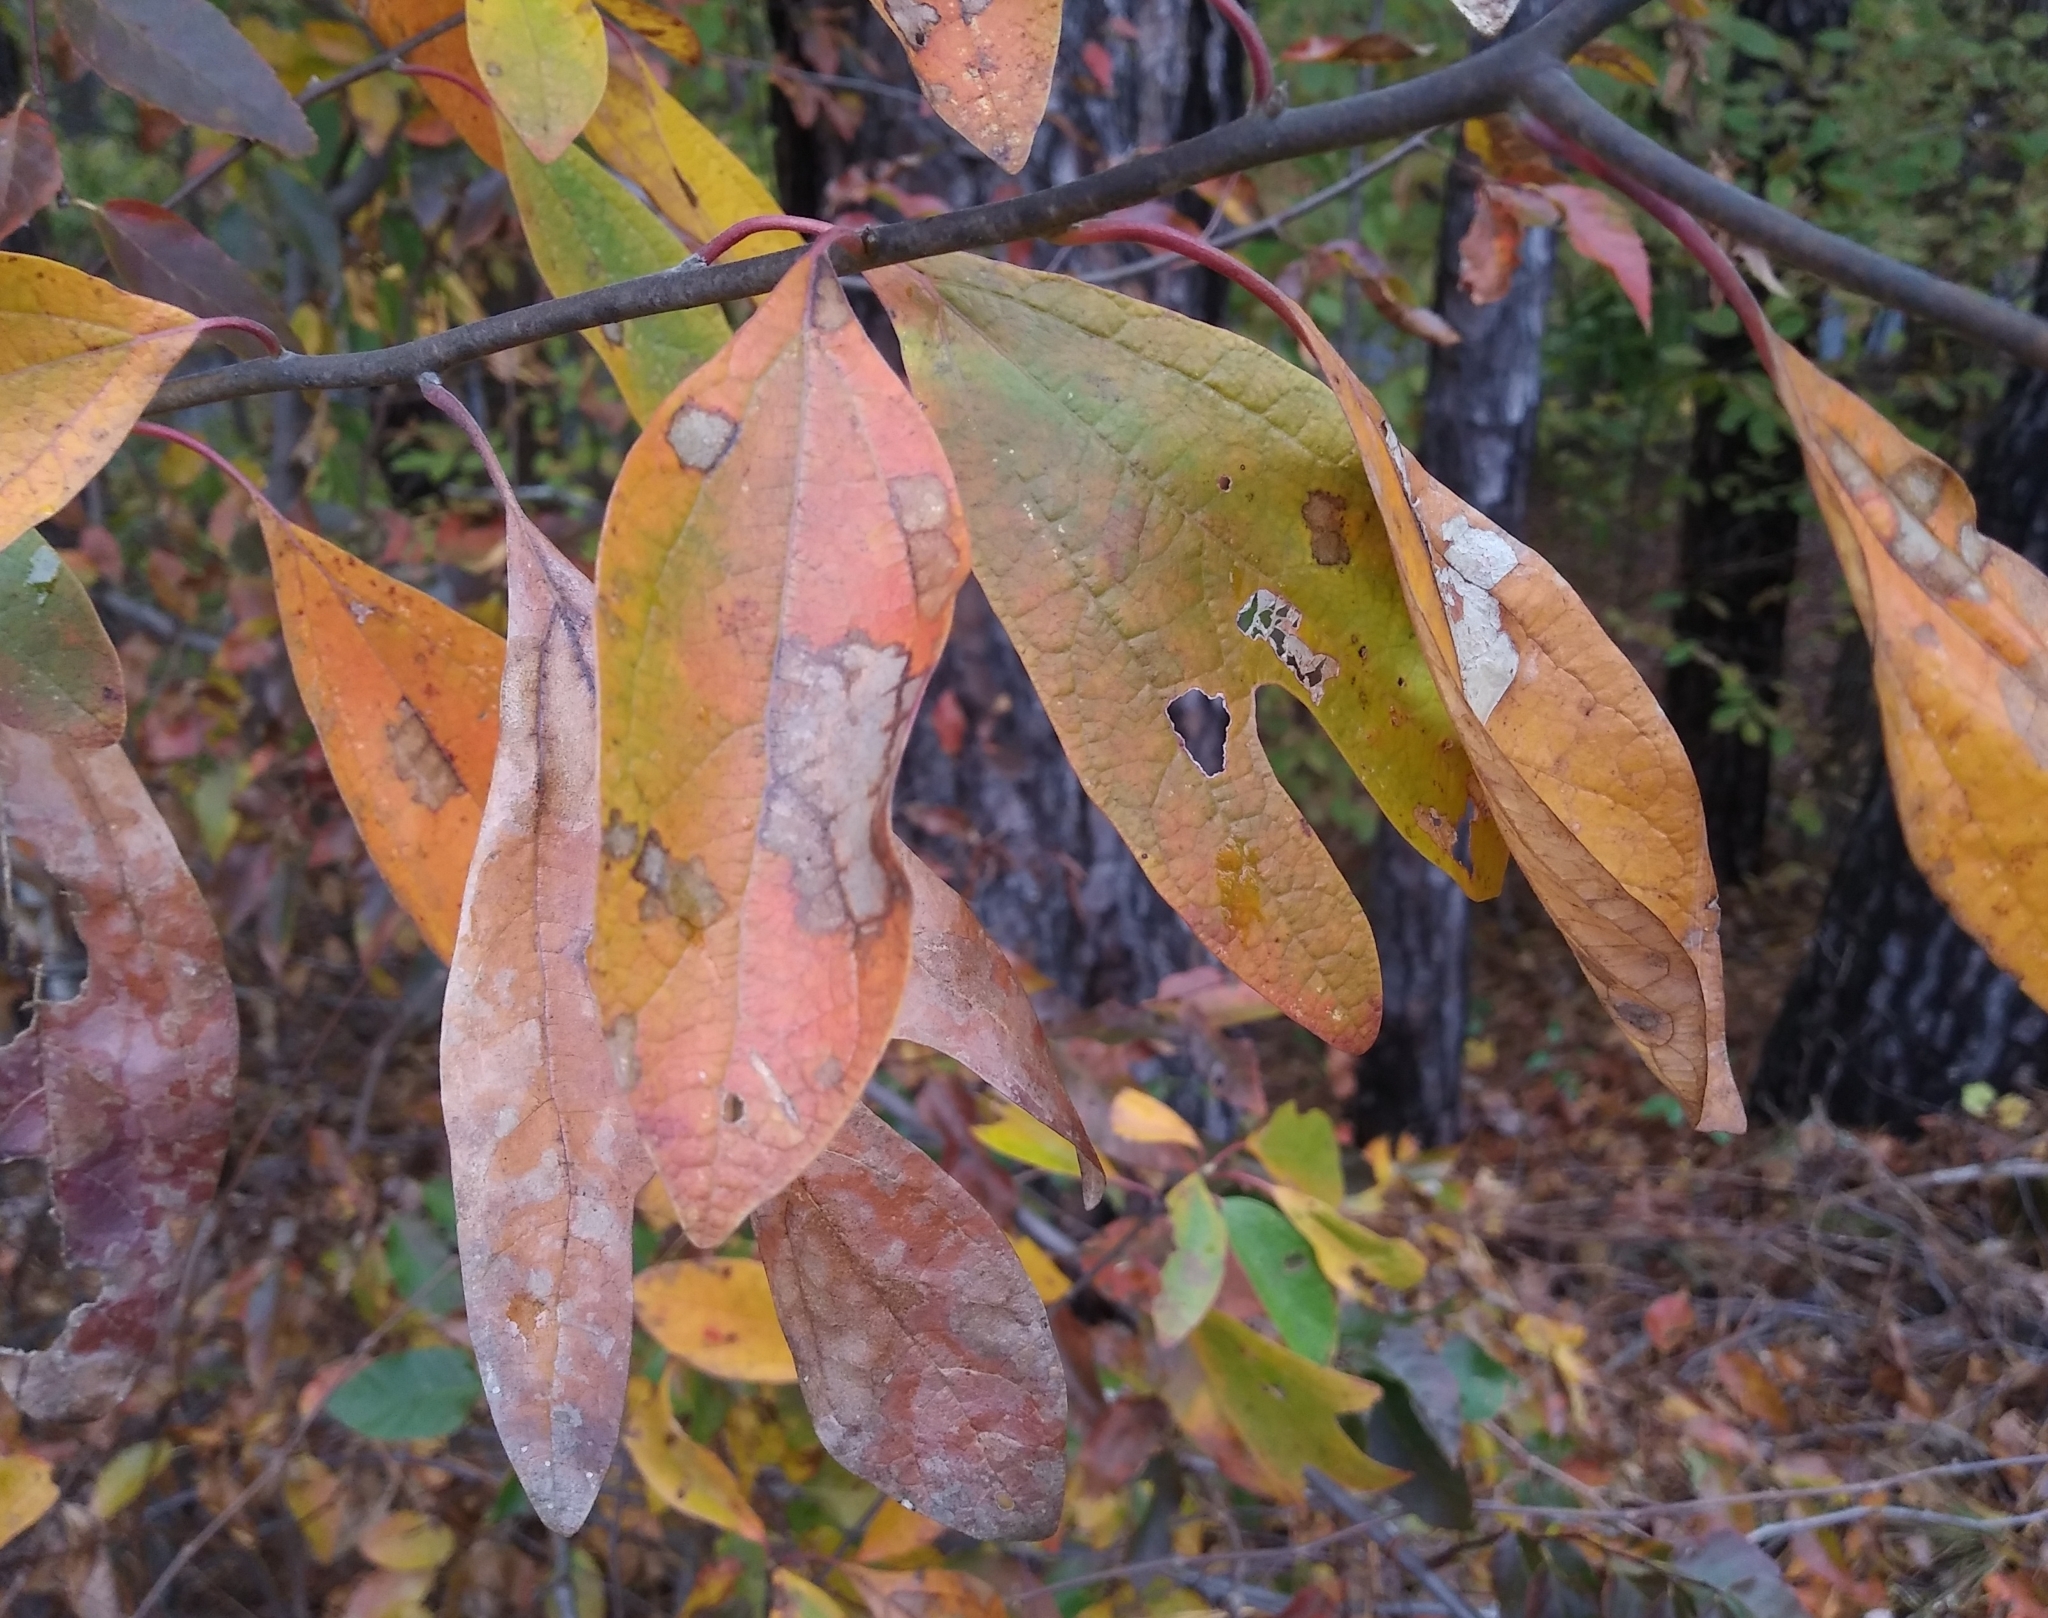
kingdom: Plantae
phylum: Tracheophyta
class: Magnoliopsida
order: Laurales
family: Lauraceae
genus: Sassafras
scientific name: Sassafras albidum
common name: Sassafras
